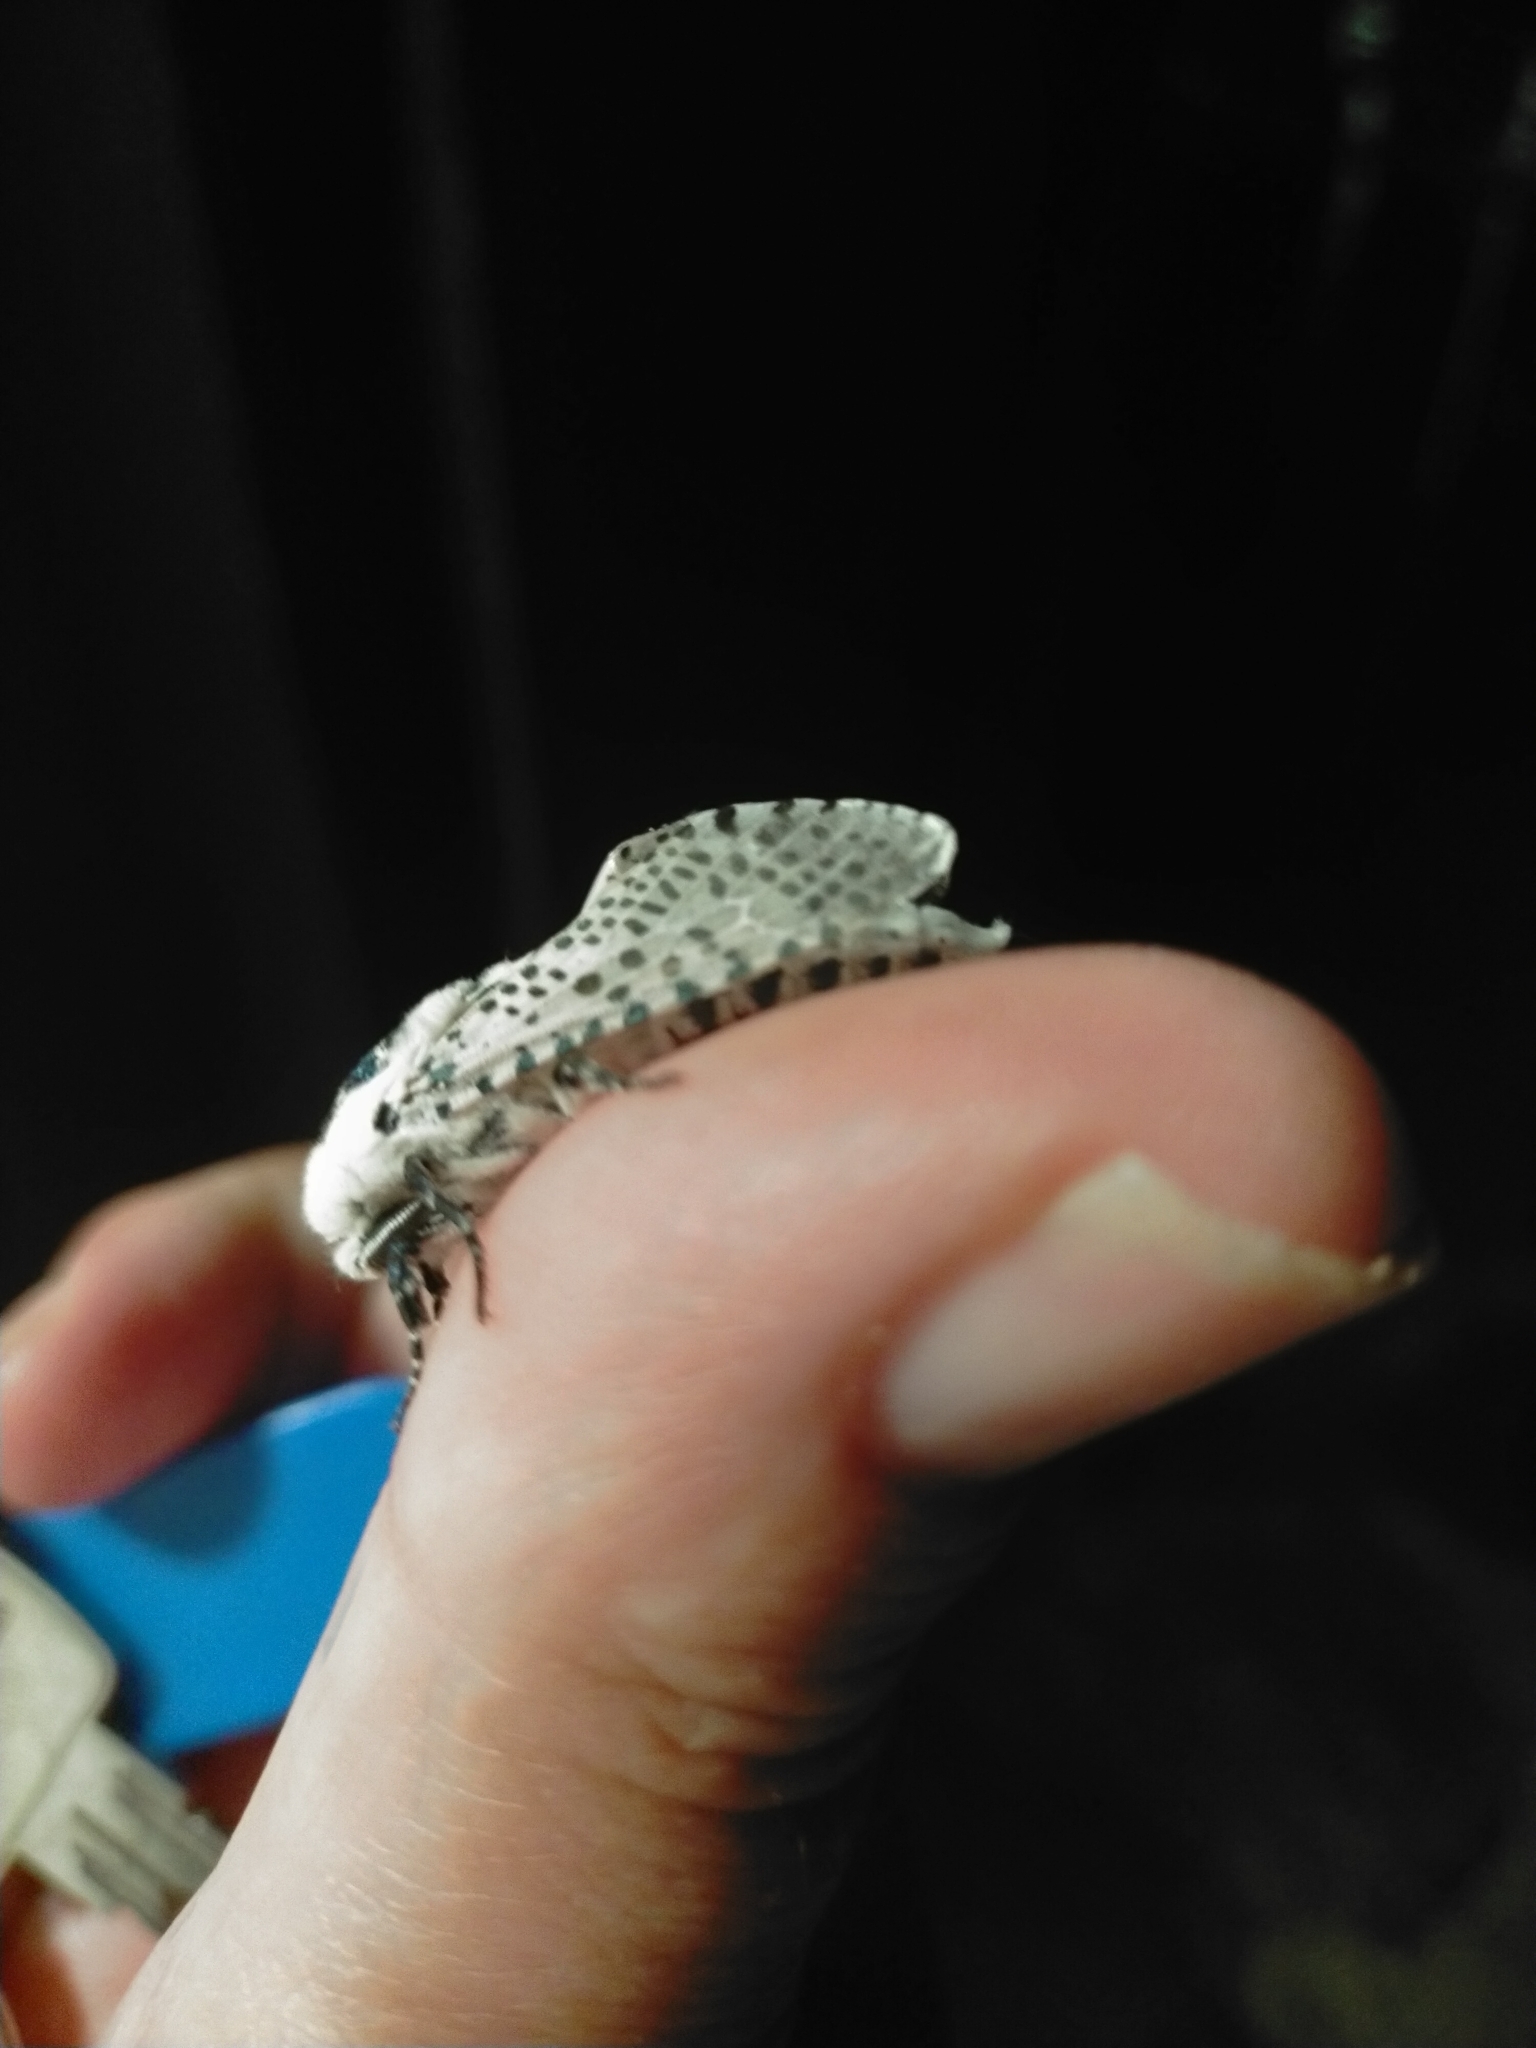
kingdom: Animalia
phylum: Arthropoda
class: Insecta
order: Lepidoptera
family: Cossidae
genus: Zeuzera
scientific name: Zeuzera pyrina
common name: Leopard moth
